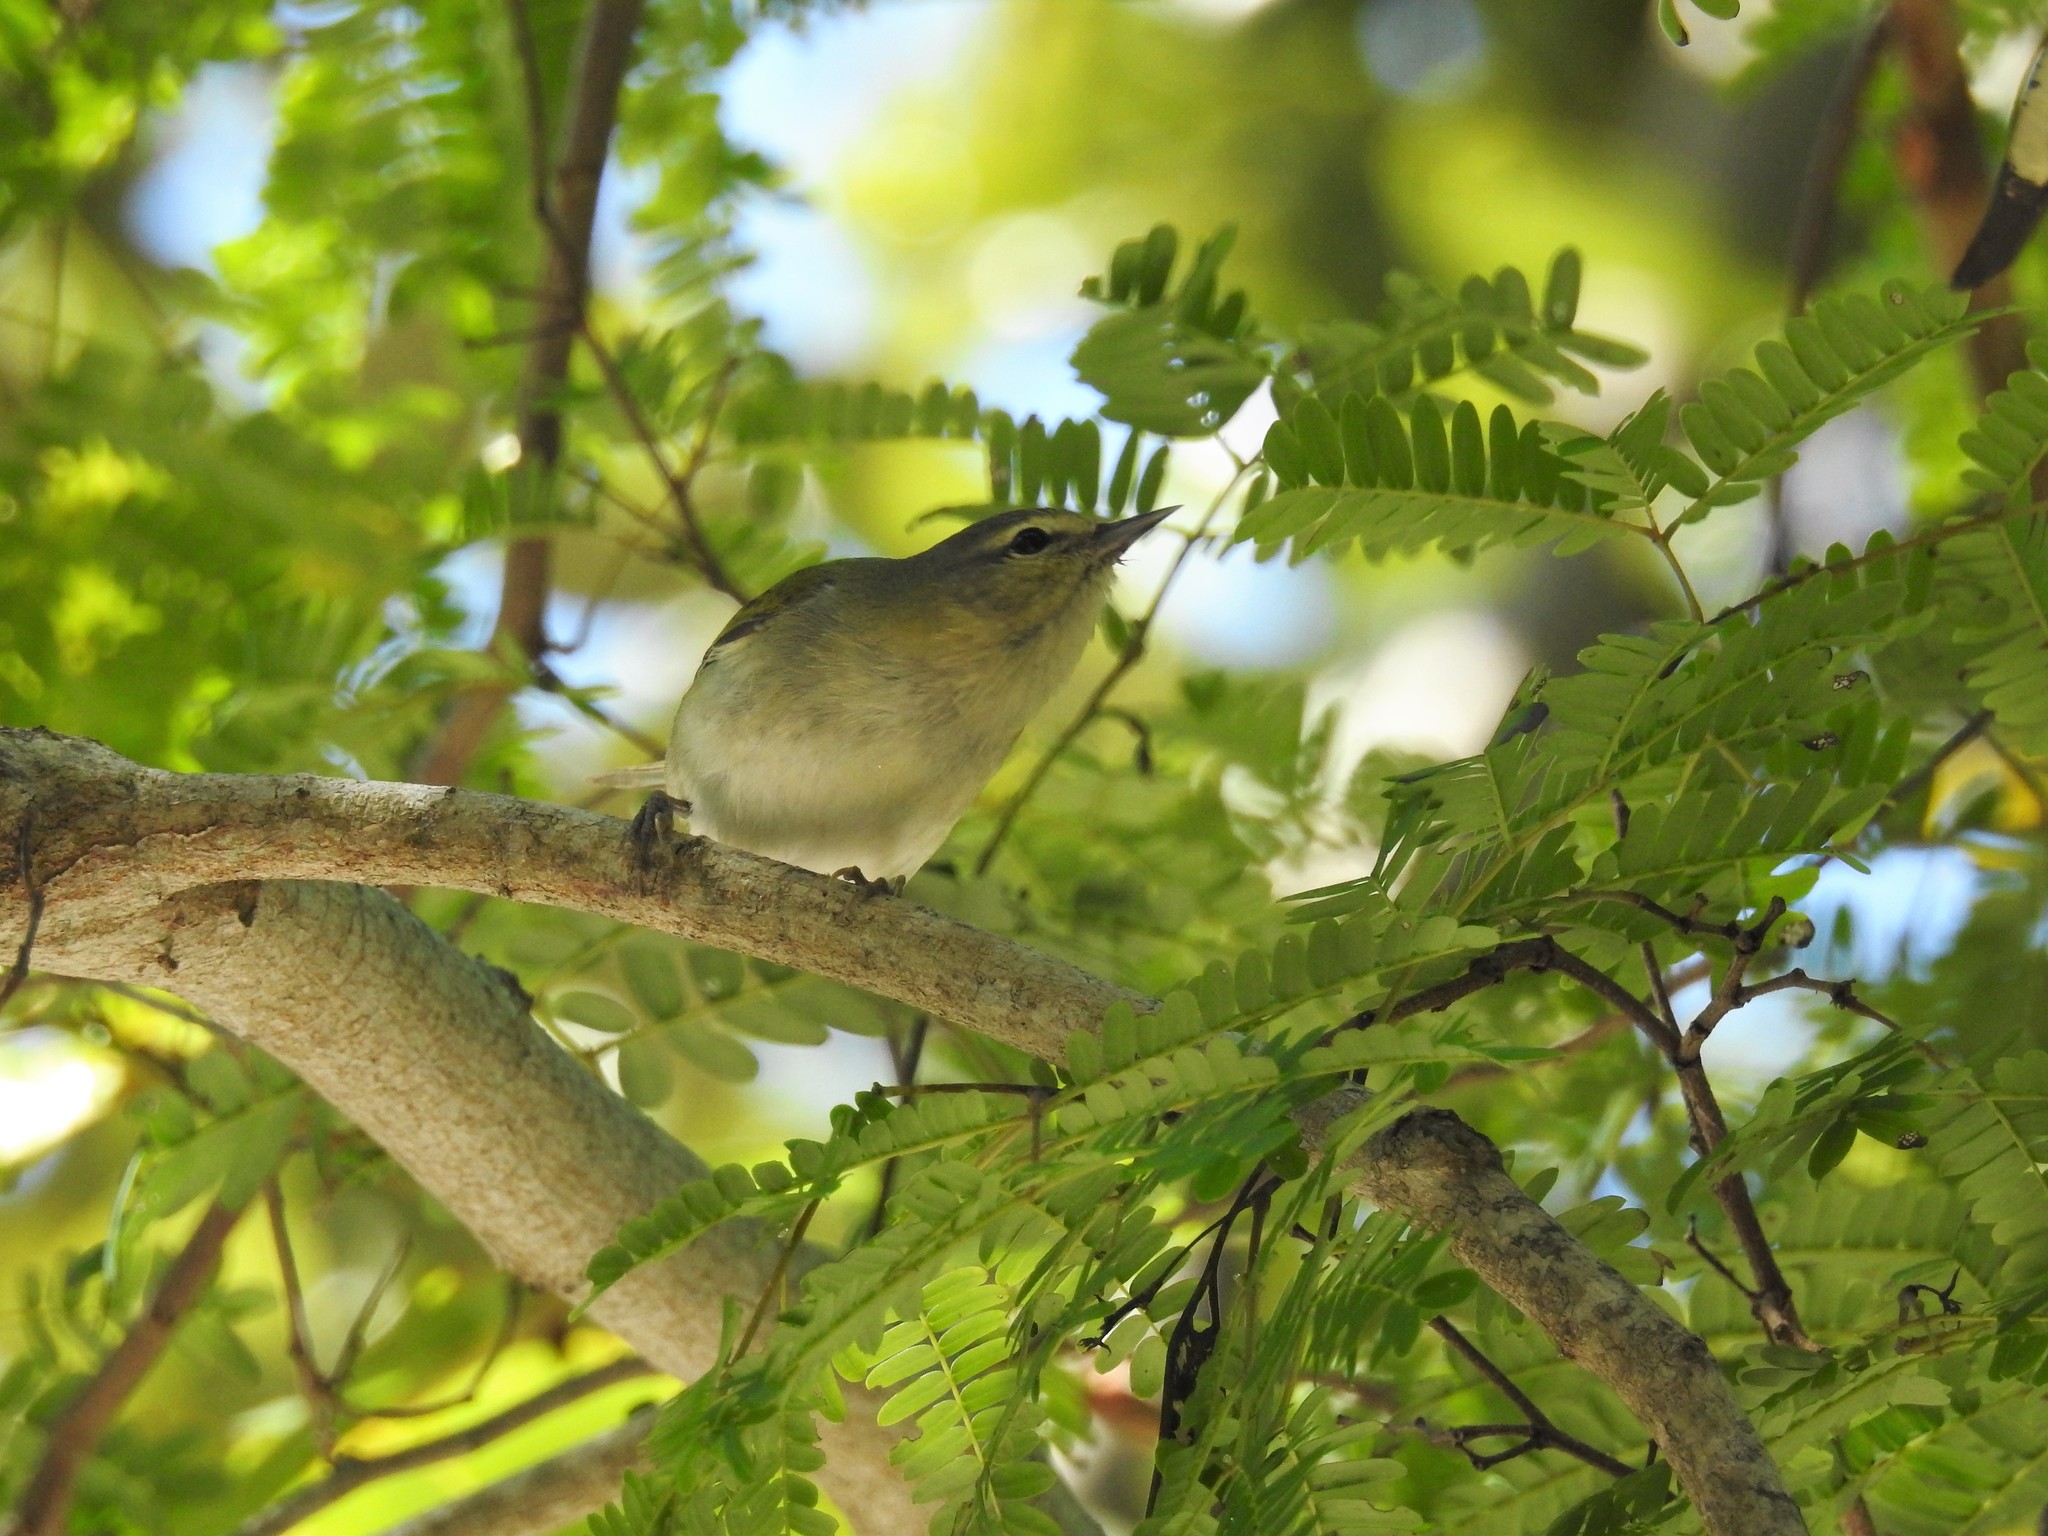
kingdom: Animalia
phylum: Chordata
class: Aves
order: Passeriformes
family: Parulidae
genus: Leiothlypis
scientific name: Leiothlypis peregrina
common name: Tennessee warbler
